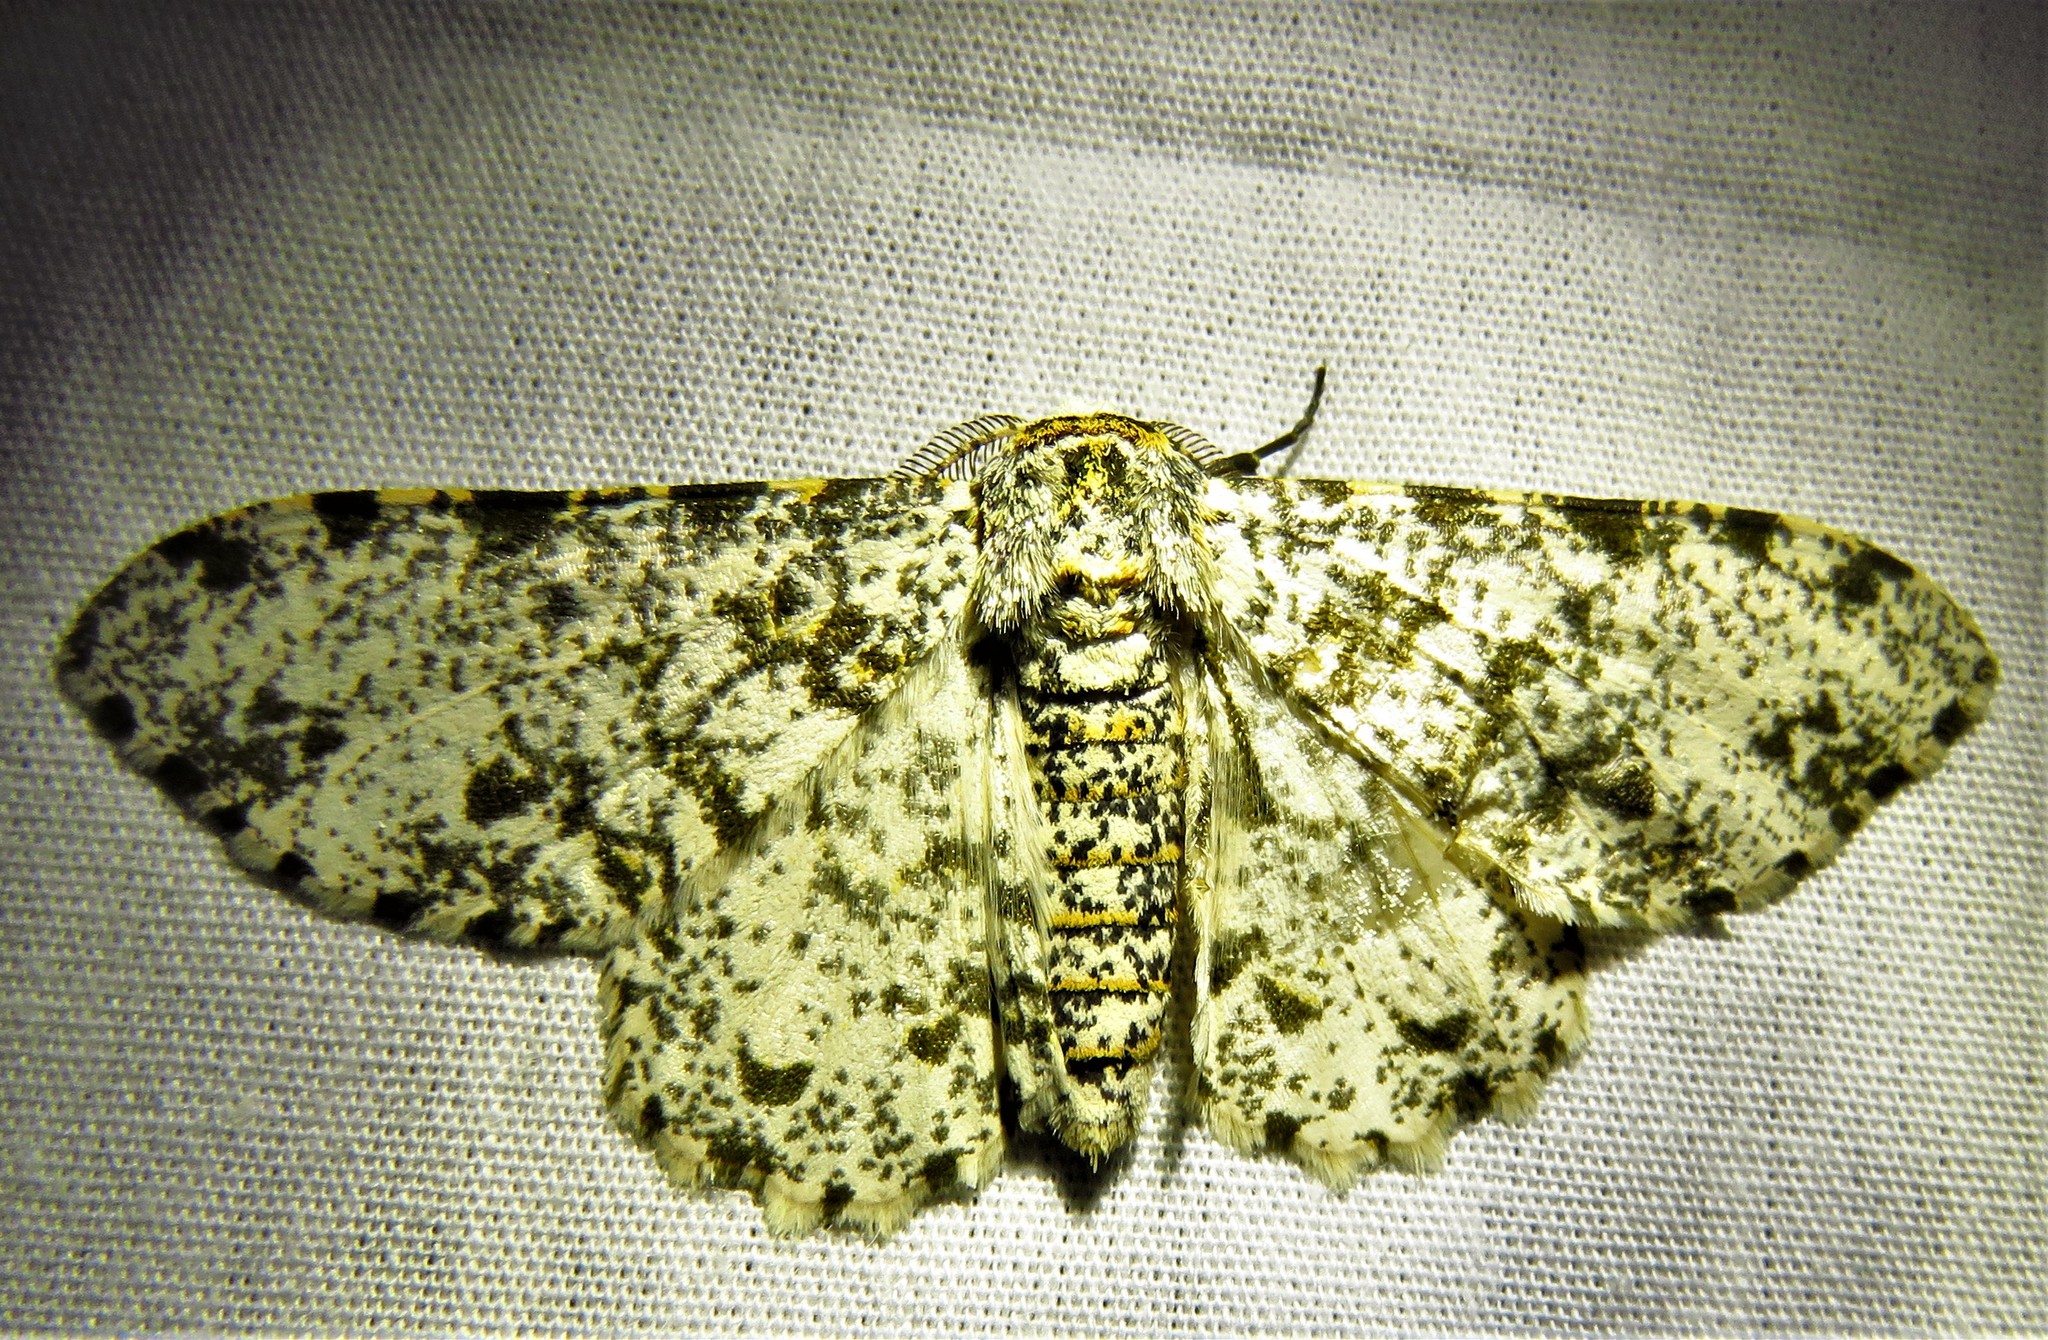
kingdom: Animalia
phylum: Arthropoda
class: Insecta
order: Lepidoptera
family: Geometridae
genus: Biston
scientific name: Biston abruptaria
